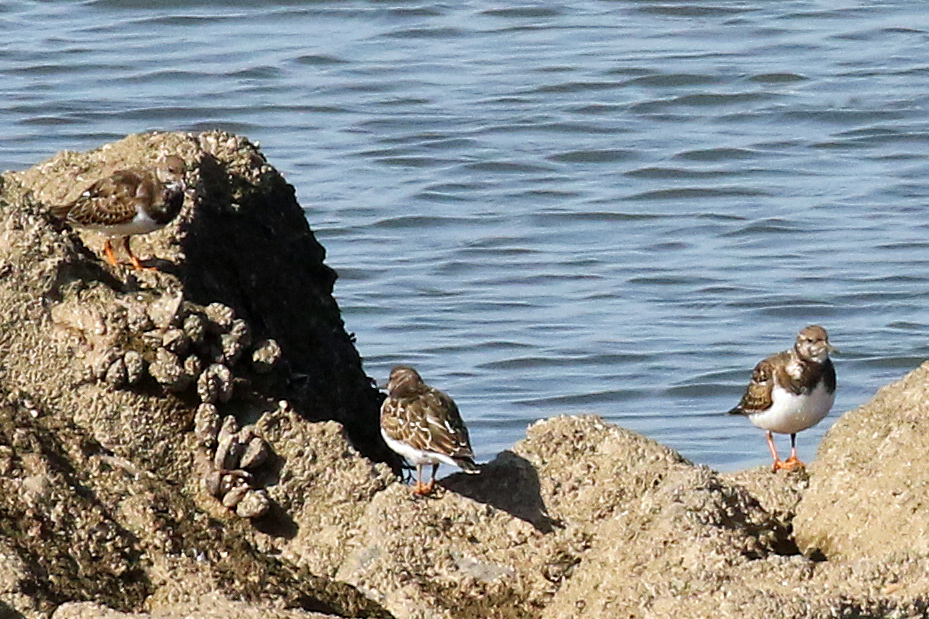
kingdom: Animalia
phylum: Chordata
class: Aves
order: Charadriiformes
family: Scolopacidae
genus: Arenaria
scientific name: Arenaria interpres
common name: Ruddy turnstone
